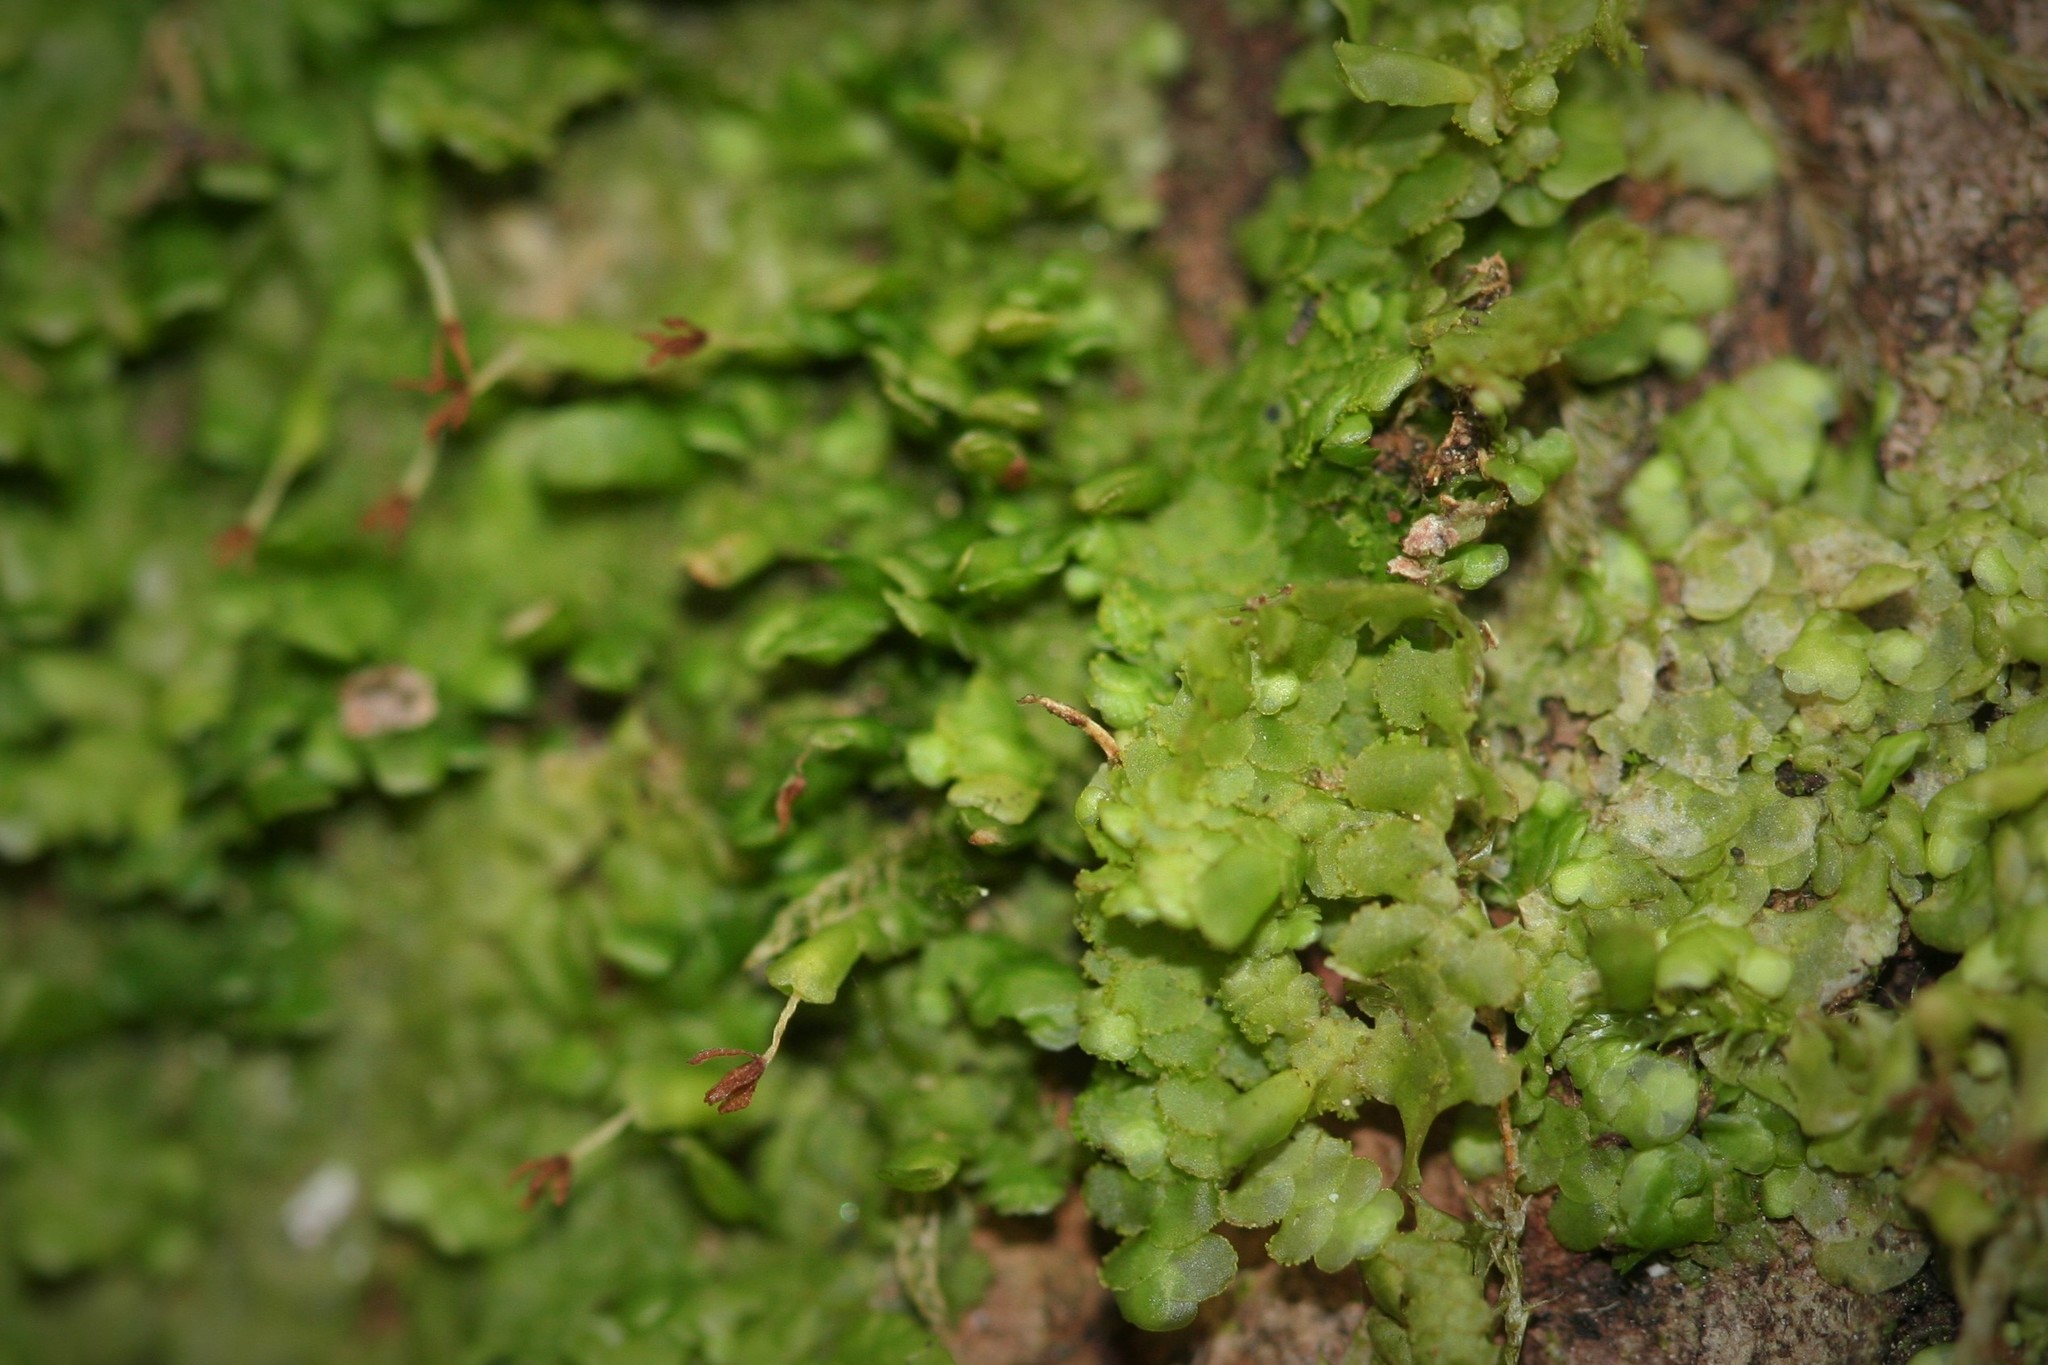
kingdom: Plantae
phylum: Marchantiophyta
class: Jungermanniopsida
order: Porellales
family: Radulaceae
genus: Radula
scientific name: Radula complanata
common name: Flat-leaved scalewort
